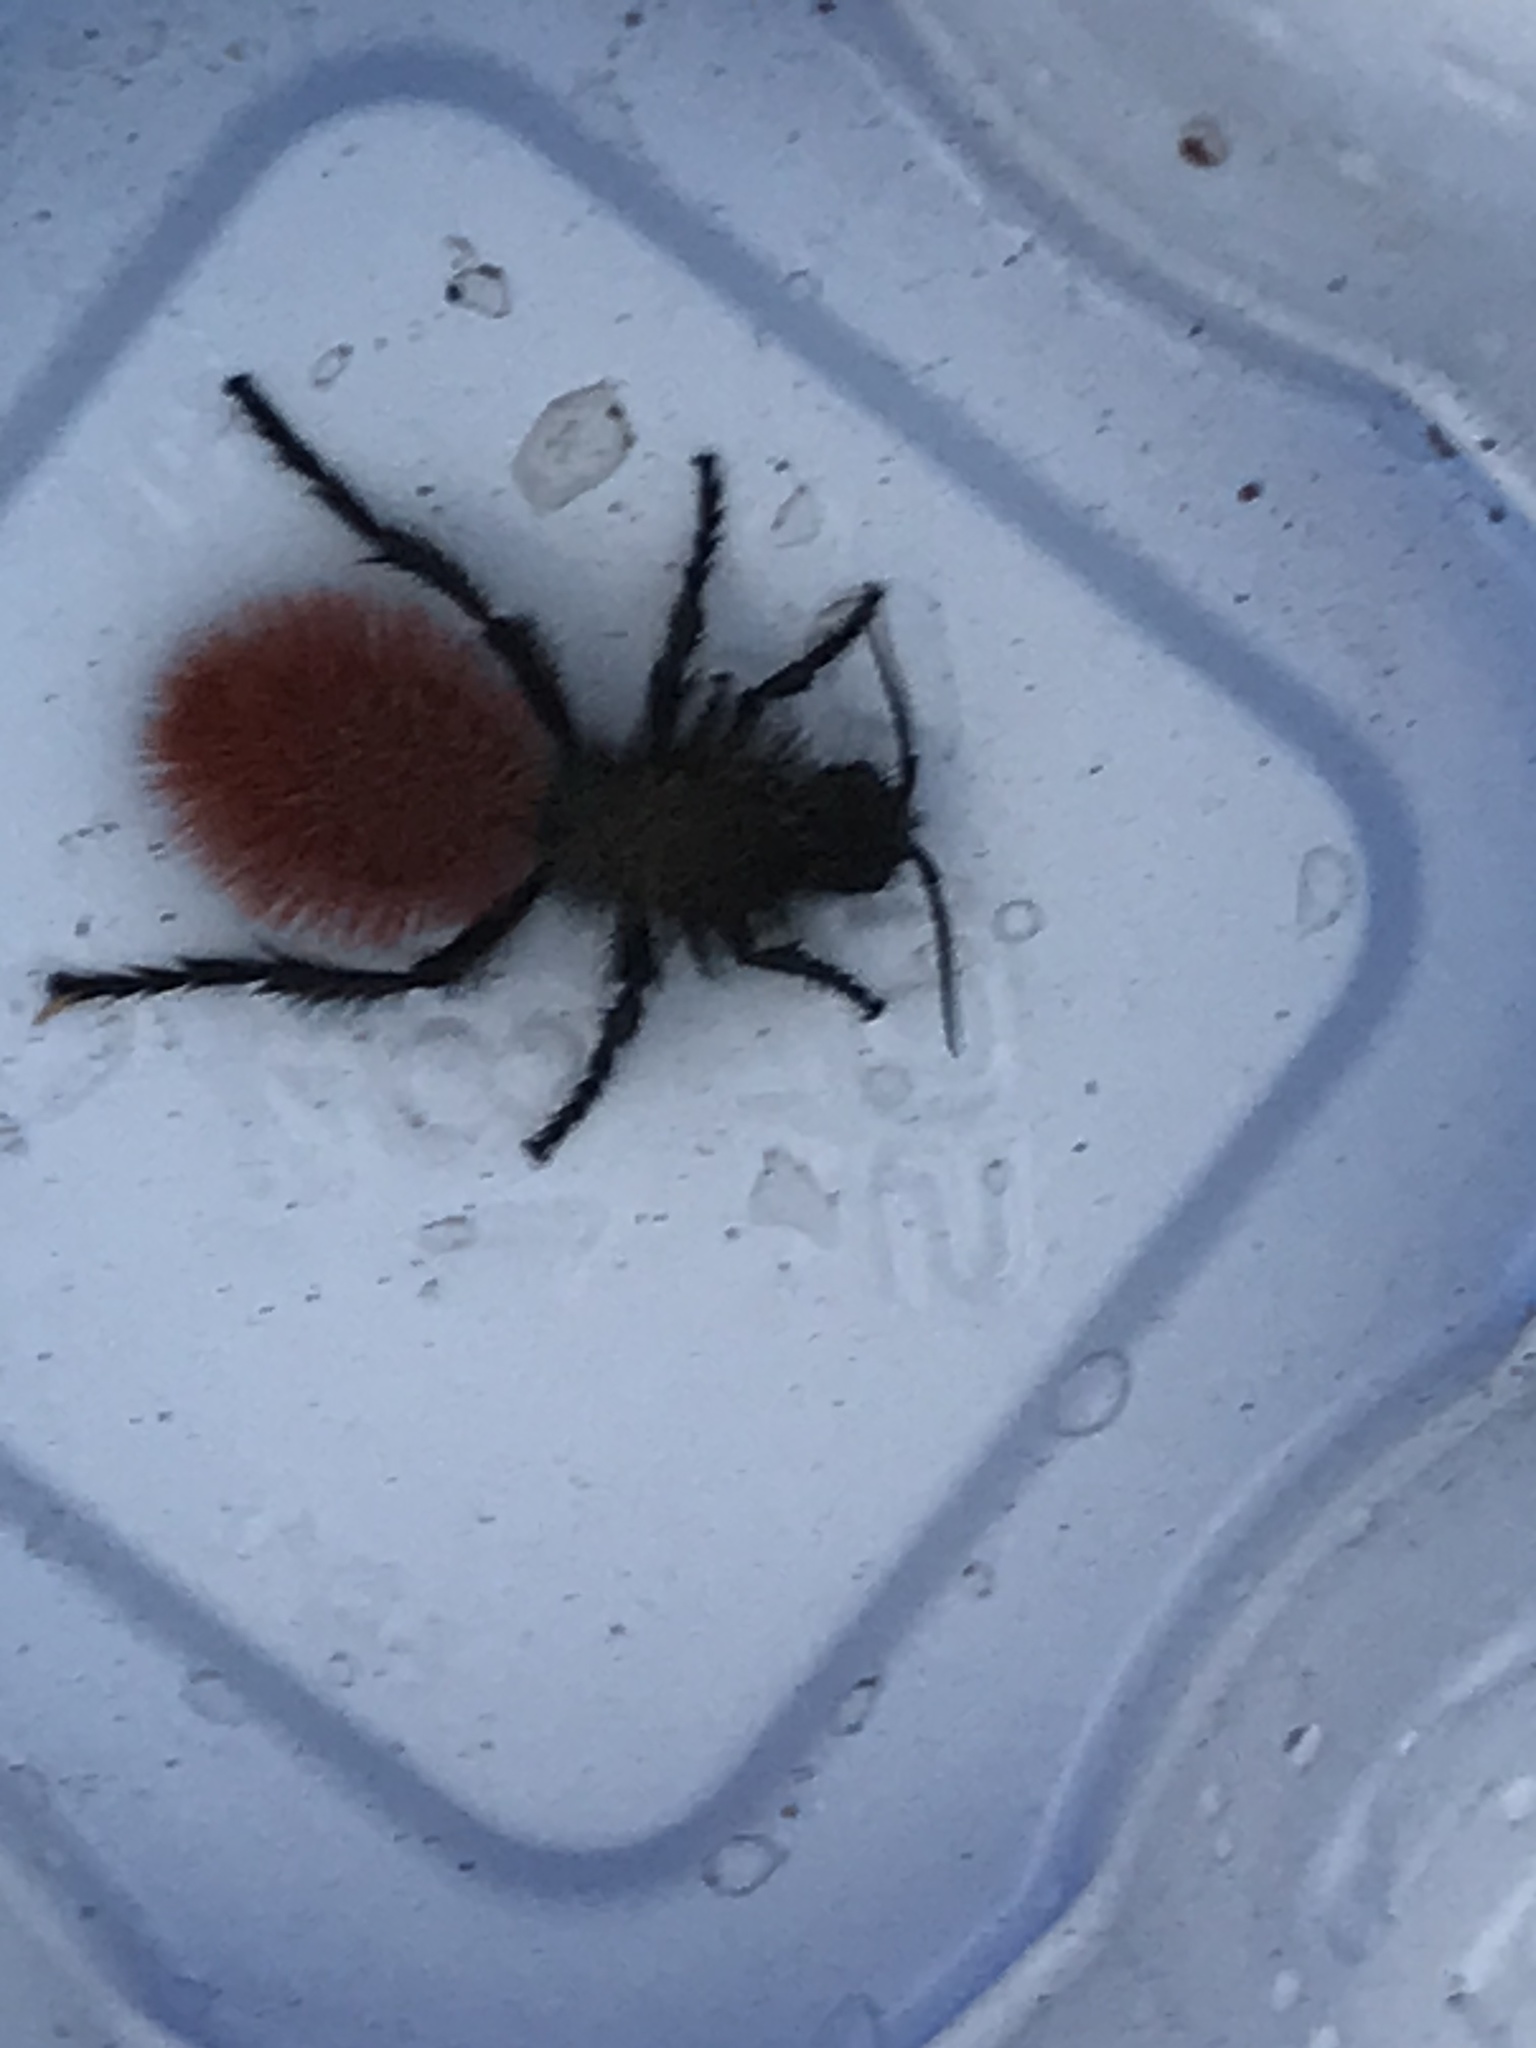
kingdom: Animalia
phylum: Arthropoda
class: Insecta
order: Hymenoptera
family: Mutillidae
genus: Dasymutilla
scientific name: Dasymutilla magnifica
